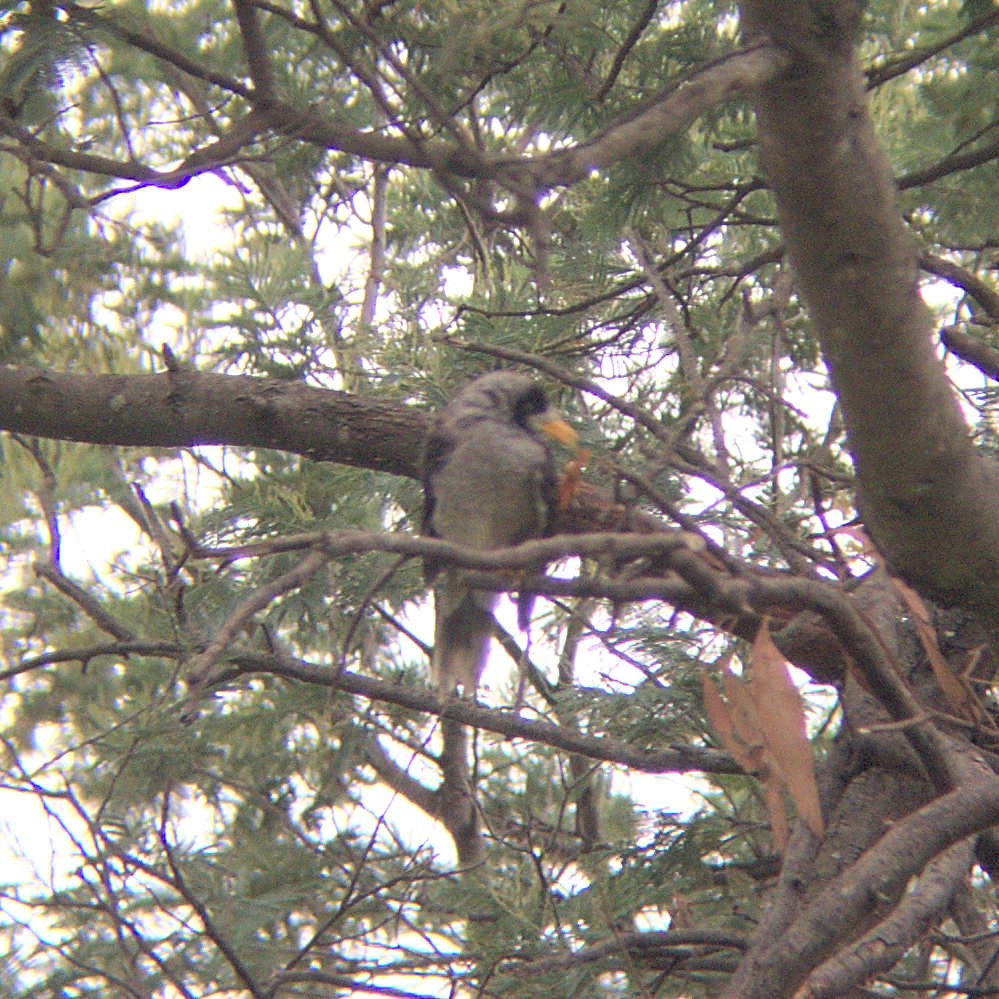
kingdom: Animalia
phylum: Chordata
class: Aves
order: Passeriformes
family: Meliphagidae
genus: Manorina
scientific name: Manorina melanocephala
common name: Noisy miner
